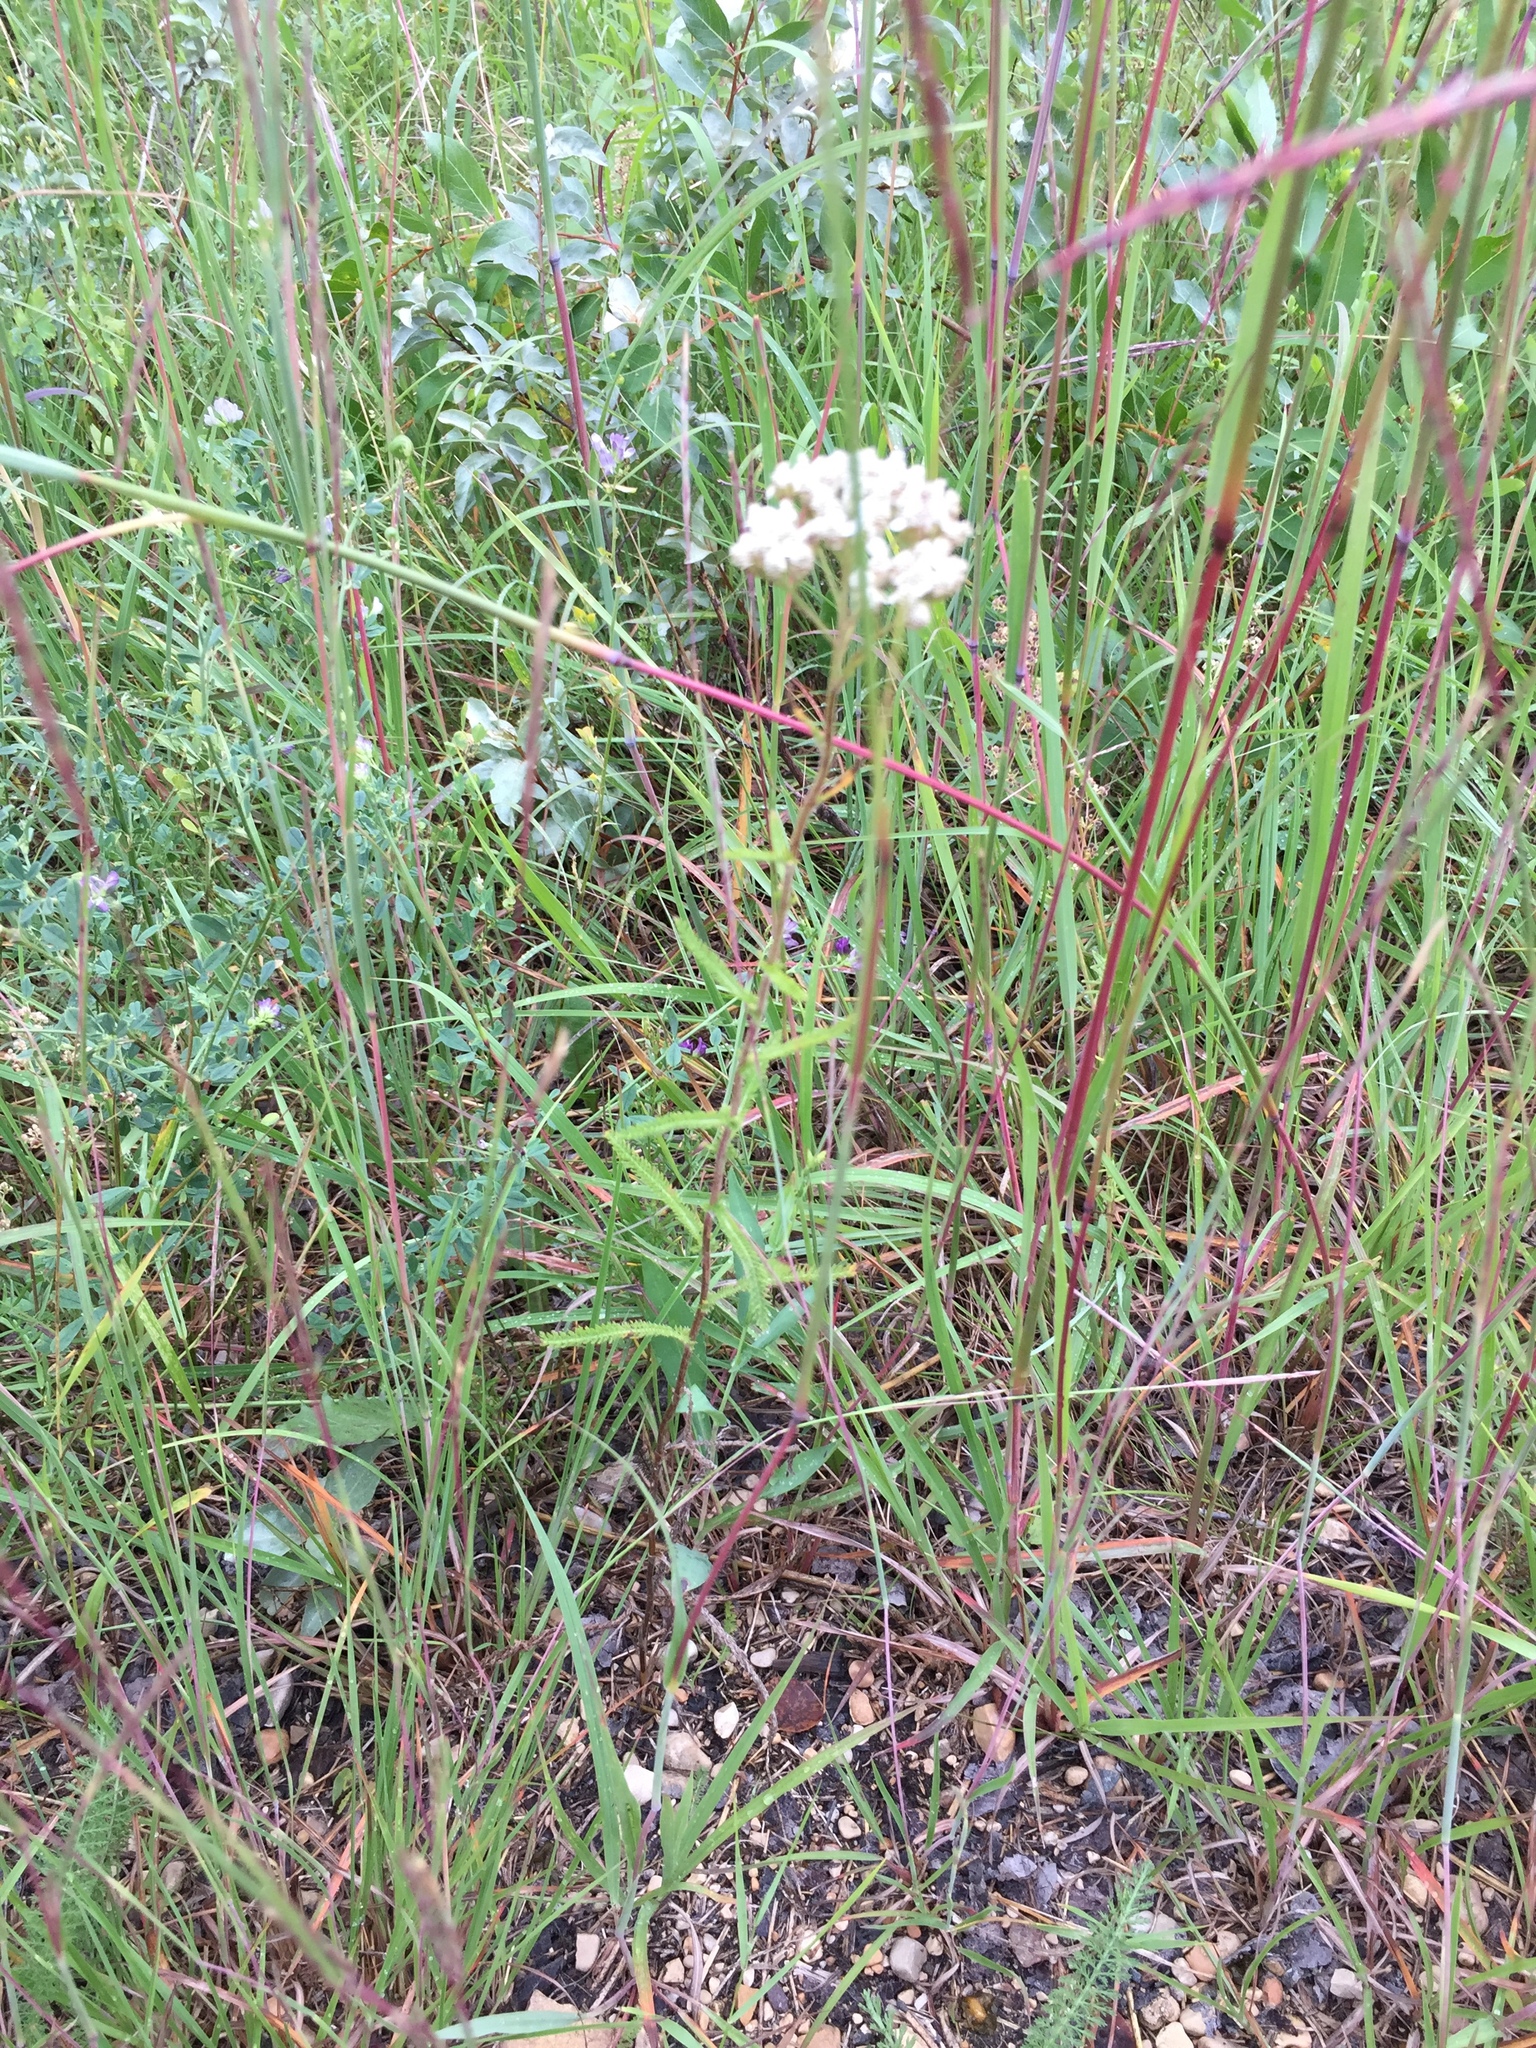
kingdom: Plantae
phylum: Tracheophyta
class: Magnoliopsida
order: Asterales
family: Asteraceae
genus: Achillea
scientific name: Achillea millefolium
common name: Yarrow
